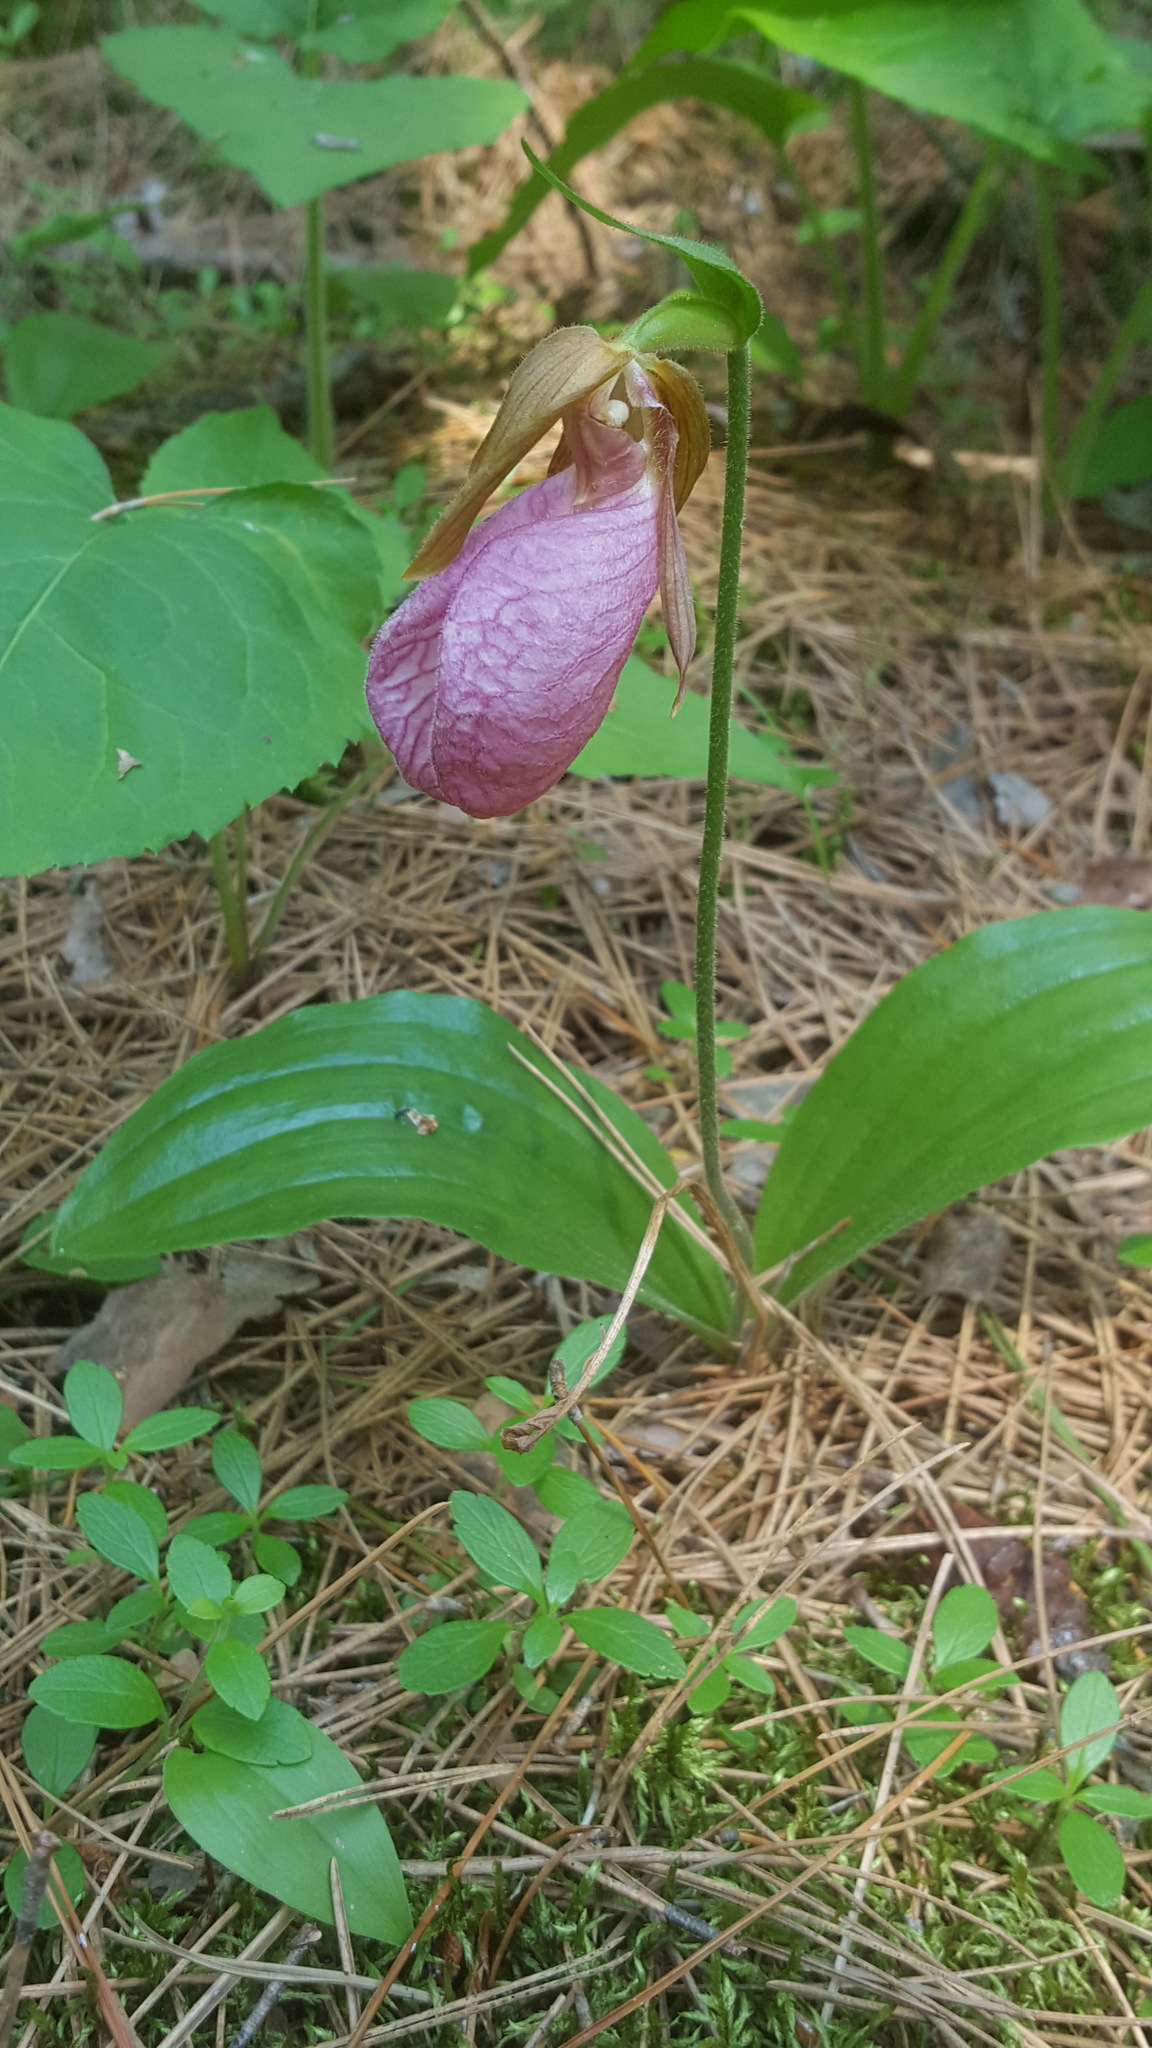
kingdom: Plantae
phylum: Tracheophyta
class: Liliopsida
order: Asparagales
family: Orchidaceae
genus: Cypripedium
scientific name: Cypripedium acaule
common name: Pink lady's-slipper
